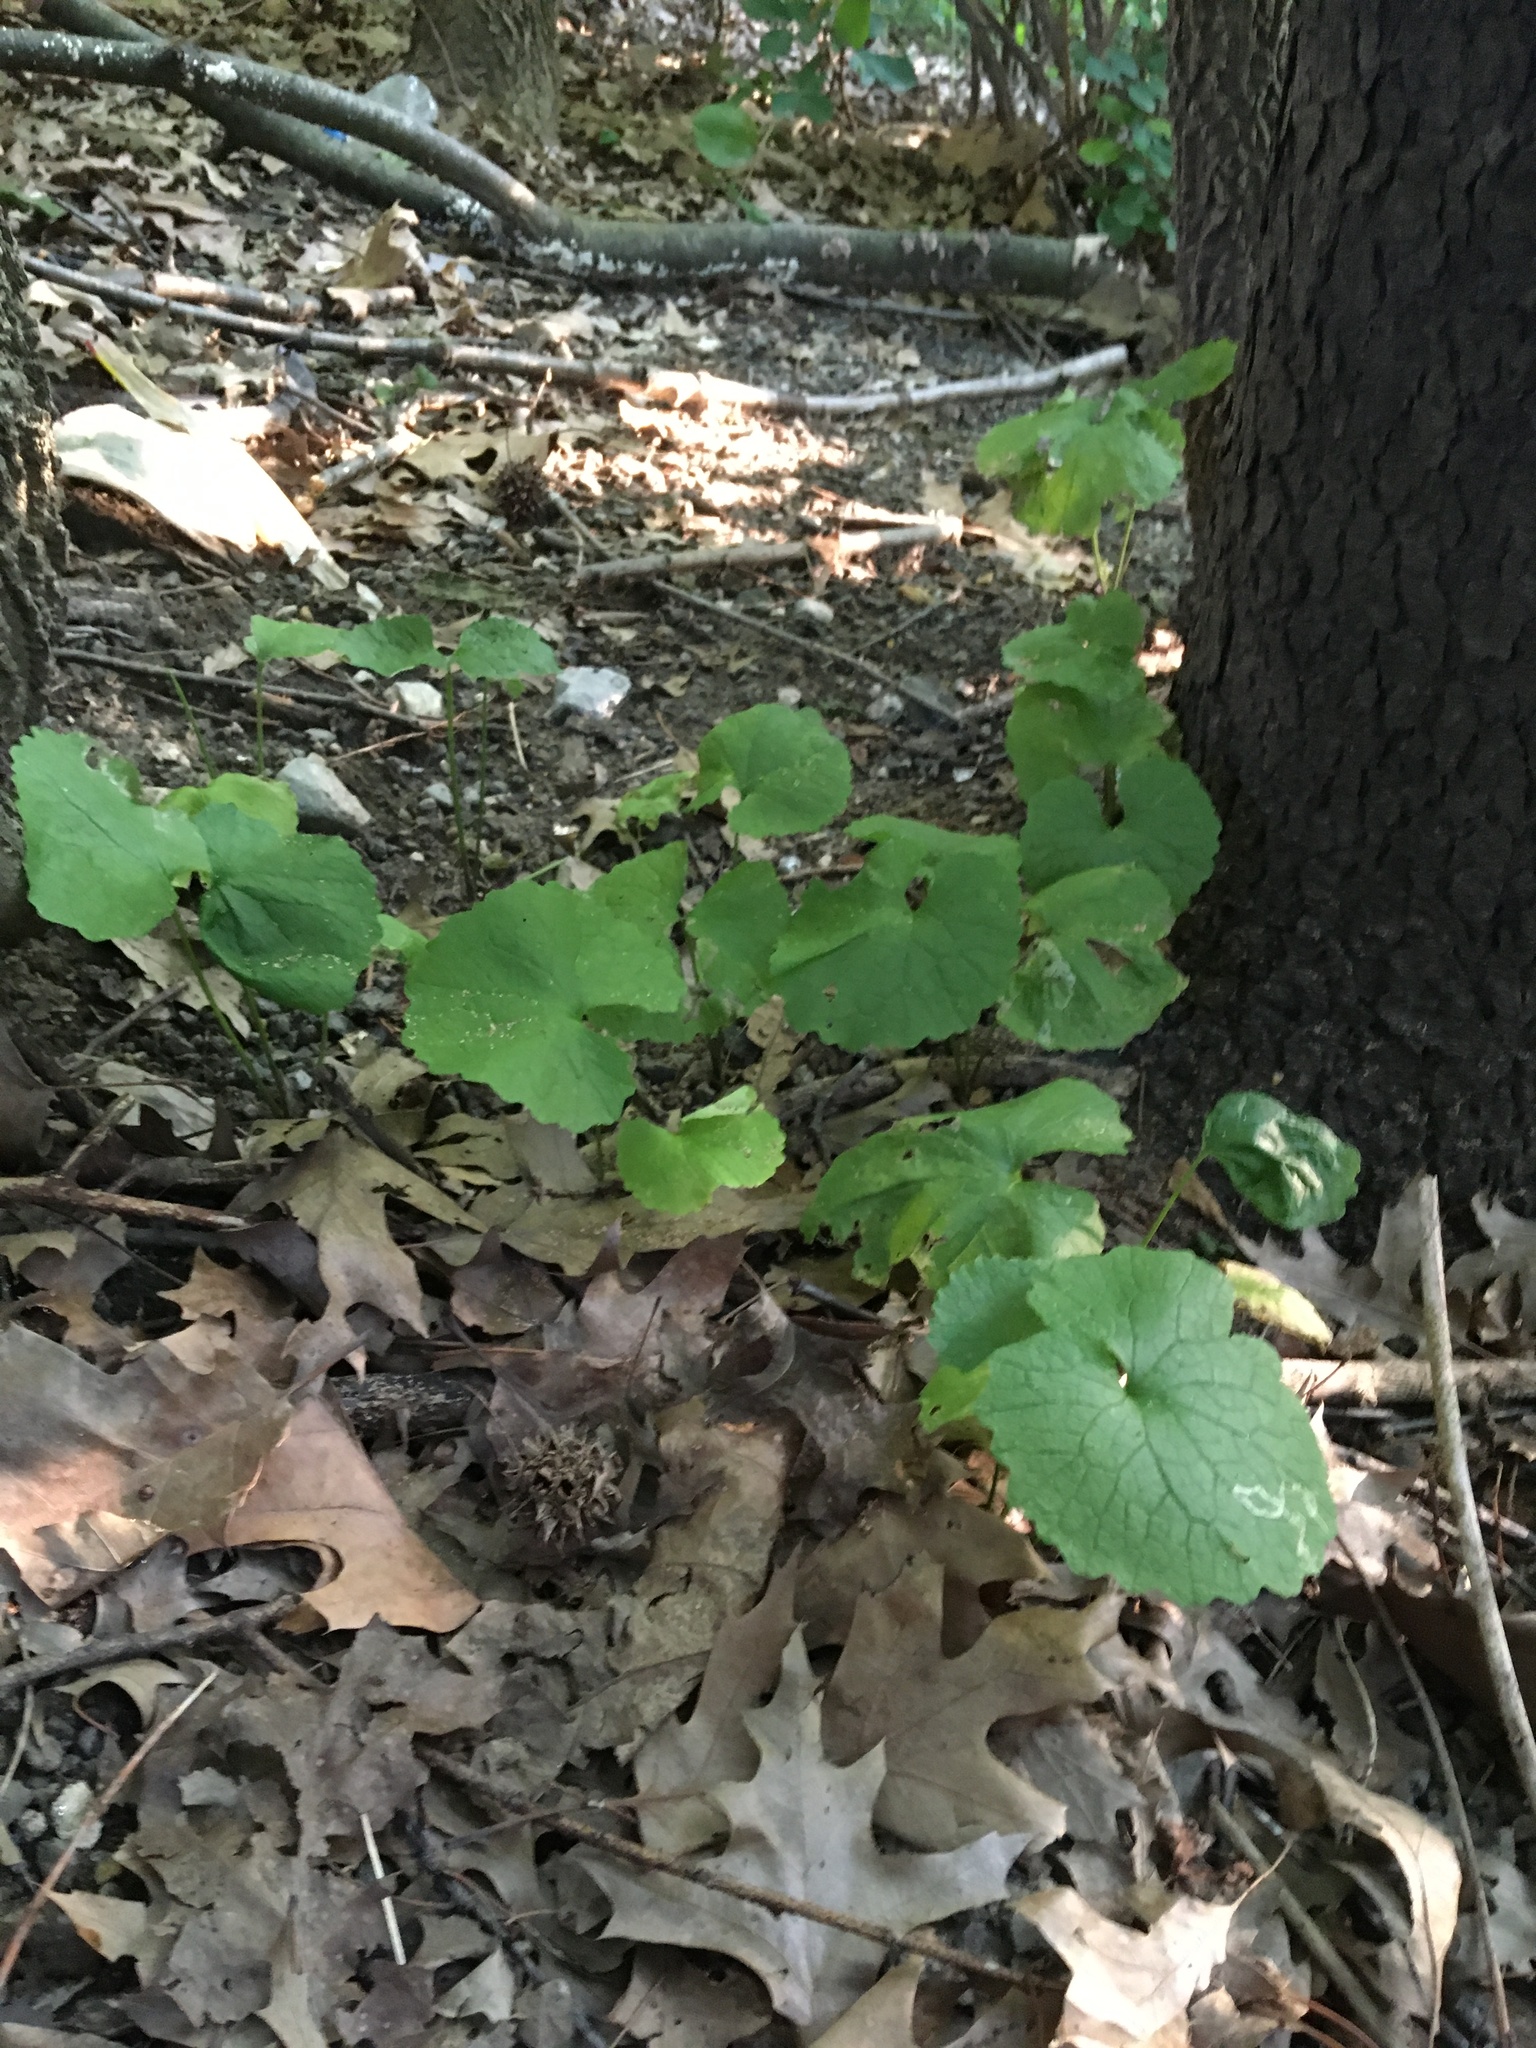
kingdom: Plantae
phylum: Tracheophyta
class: Magnoliopsida
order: Brassicales
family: Brassicaceae
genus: Alliaria
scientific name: Alliaria petiolata
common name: Garlic mustard
